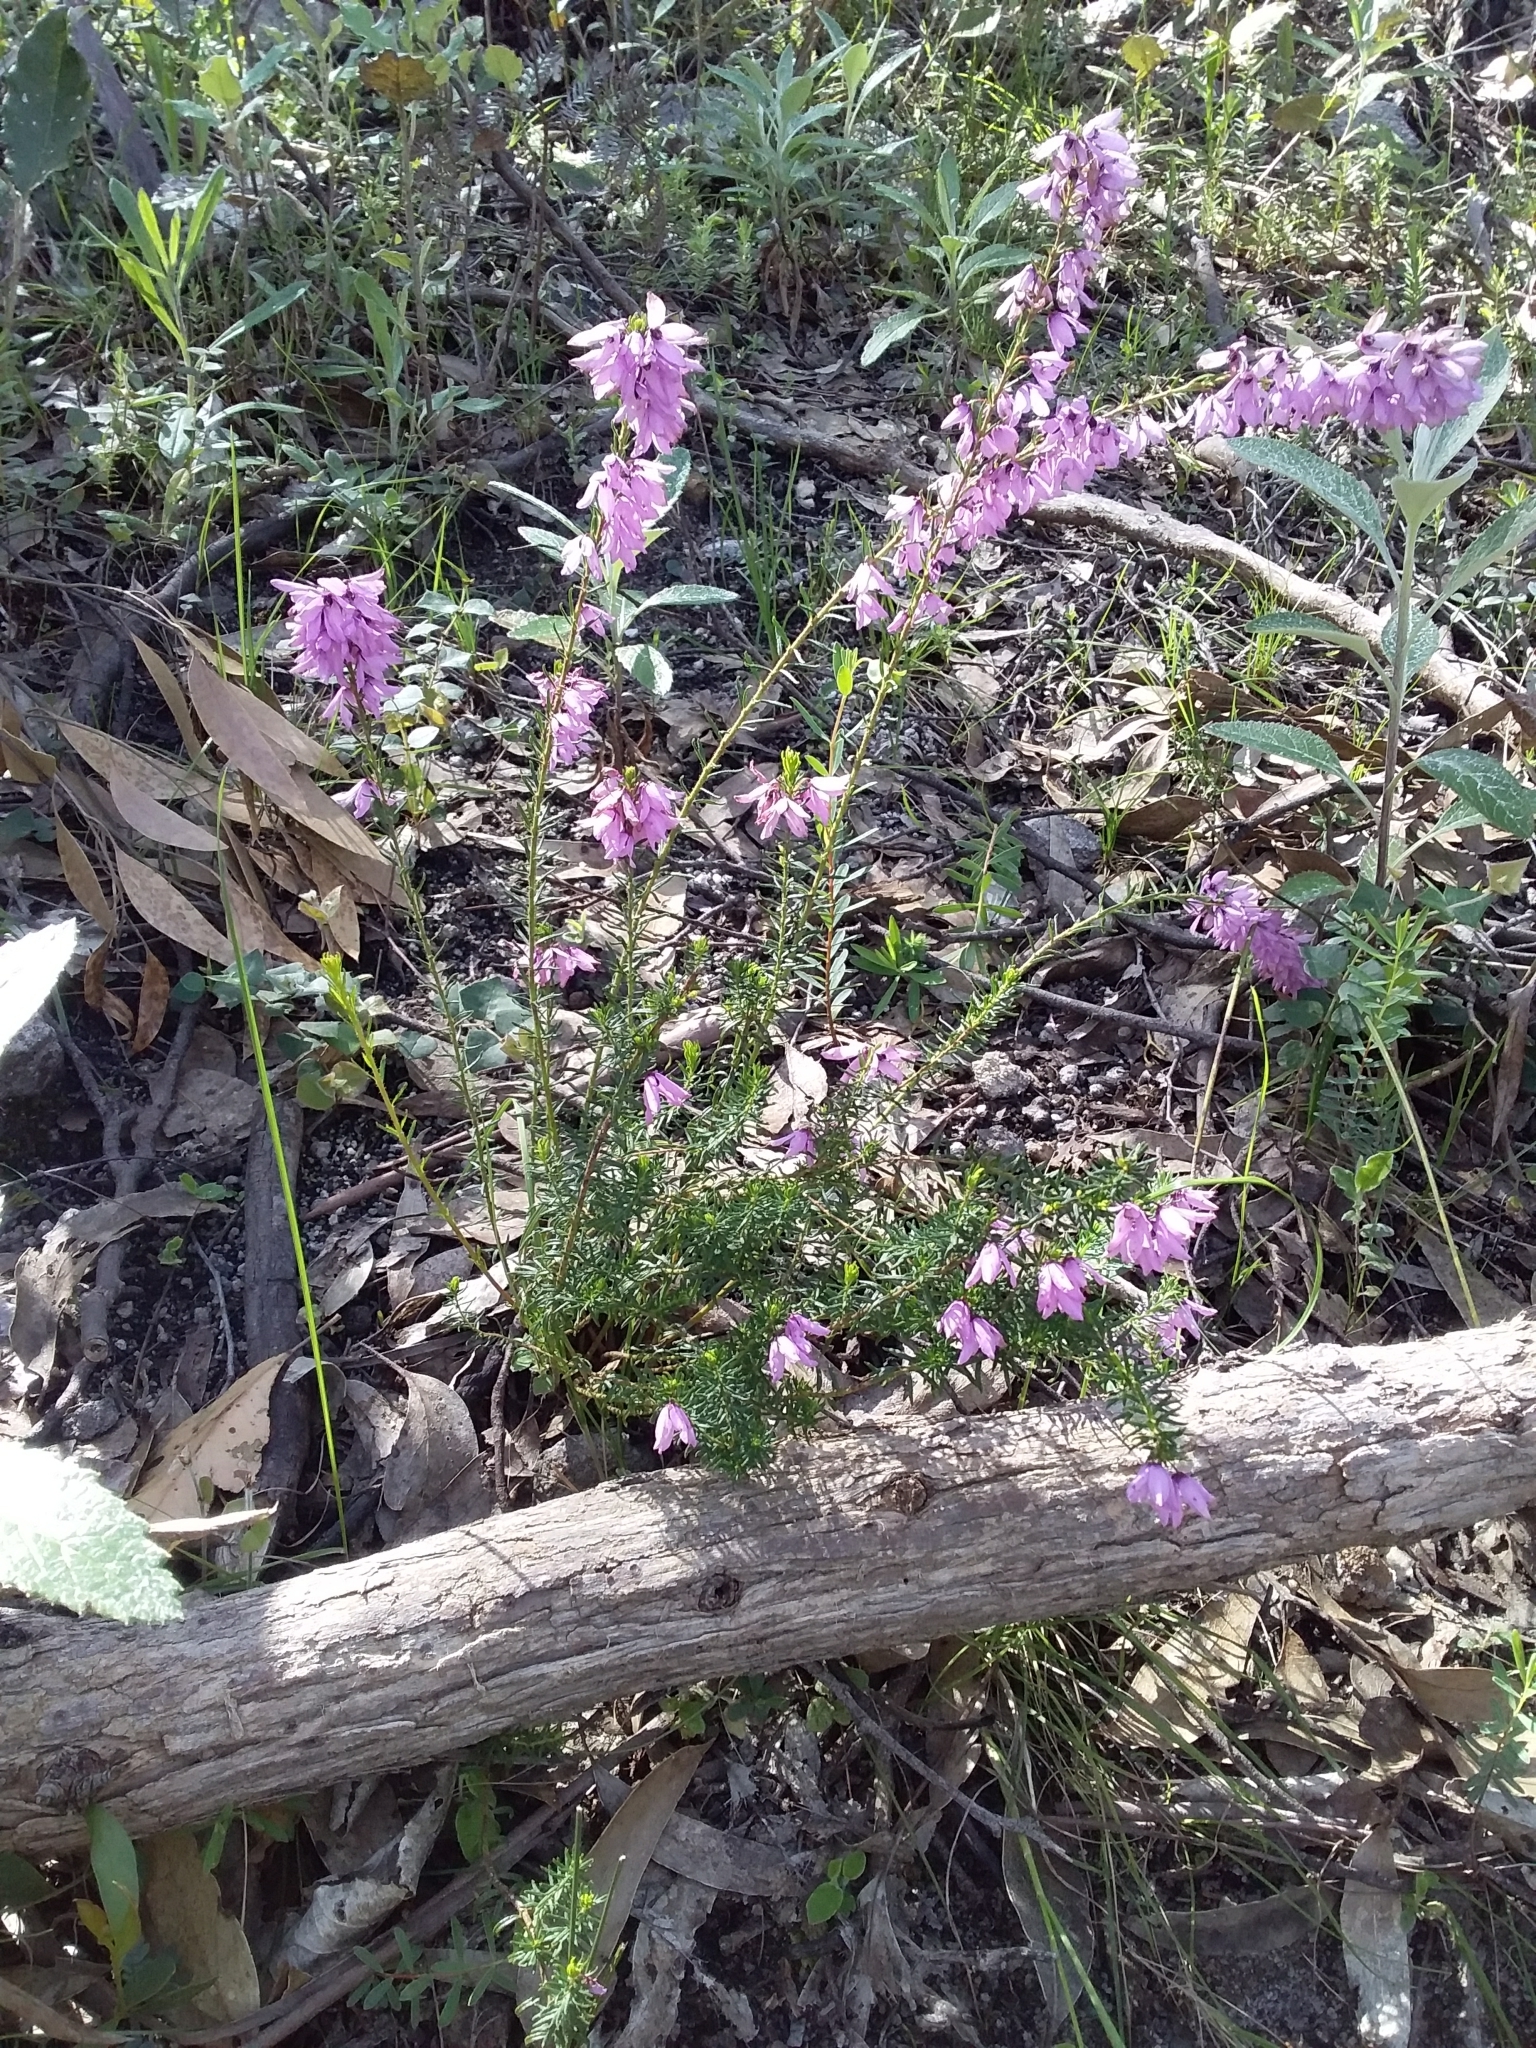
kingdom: Plantae
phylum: Tracheophyta
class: Magnoliopsida
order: Oxalidales
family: Elaeocarpaceae
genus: Tetratheca
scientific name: Tetratheca pilosa
